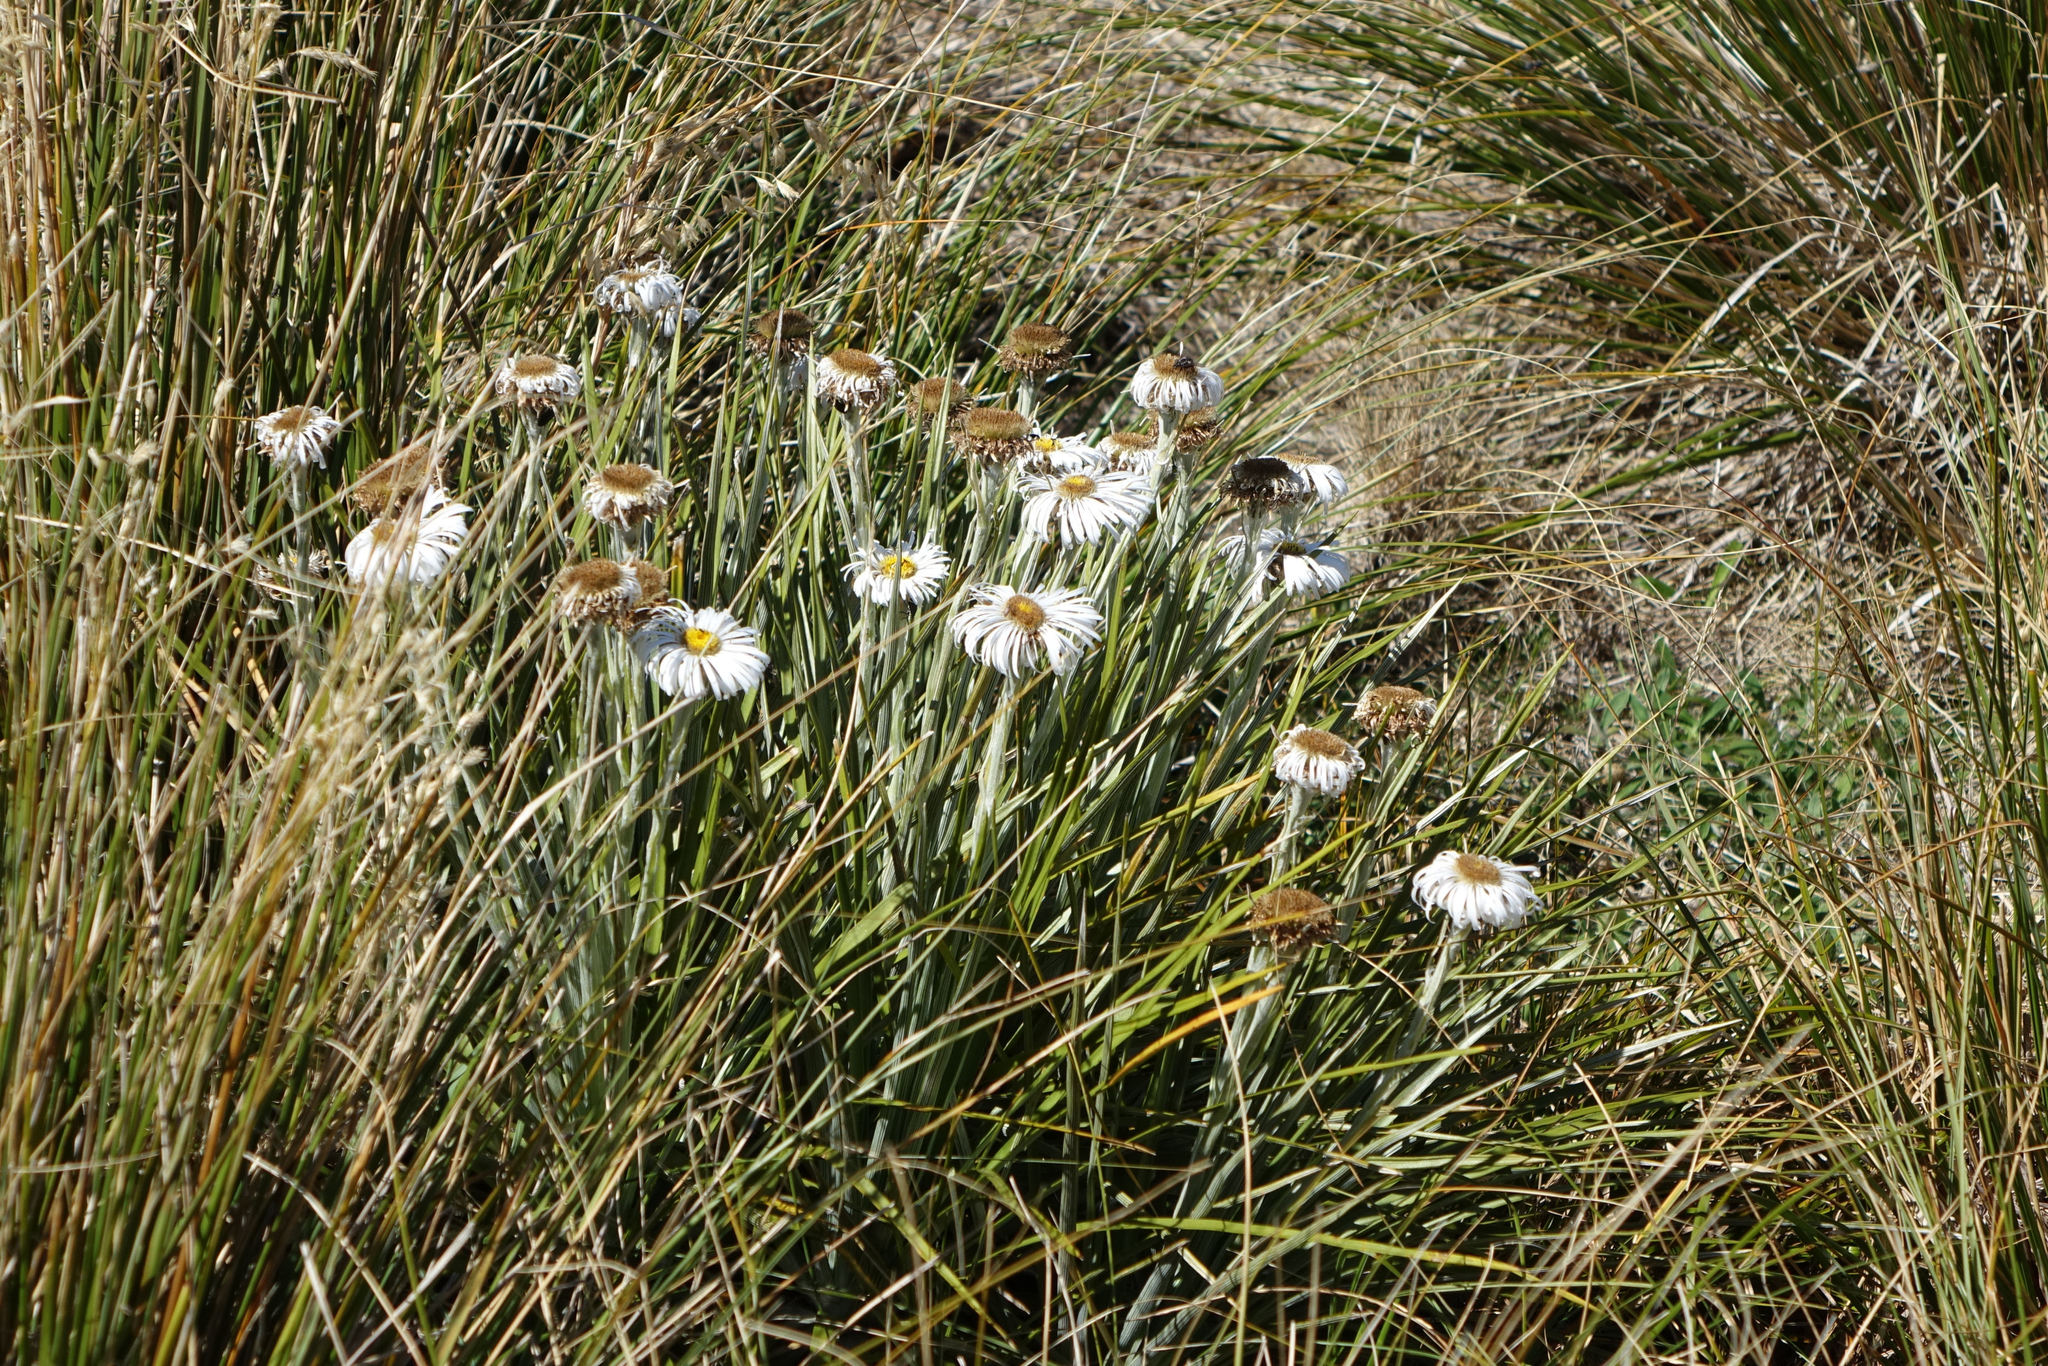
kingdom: Plantae
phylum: Tracheophyta
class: Magnoliopsida
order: Asterales
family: Asteraceae
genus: Celmisia
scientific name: Celmisia lyallii
